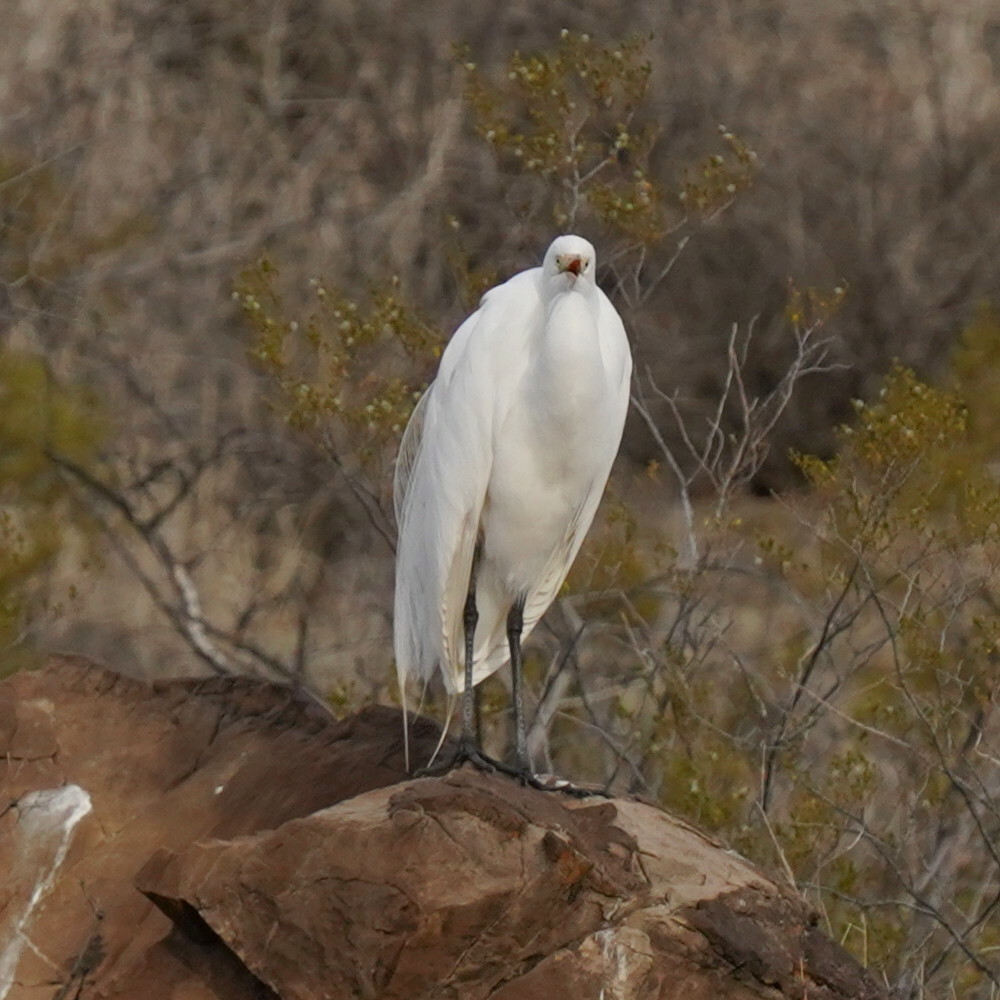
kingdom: Animalia
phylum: Chordata
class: Aves
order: Pelecaniformes
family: Ardeidae
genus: Ardea
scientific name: Ardea alba
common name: Great egret
